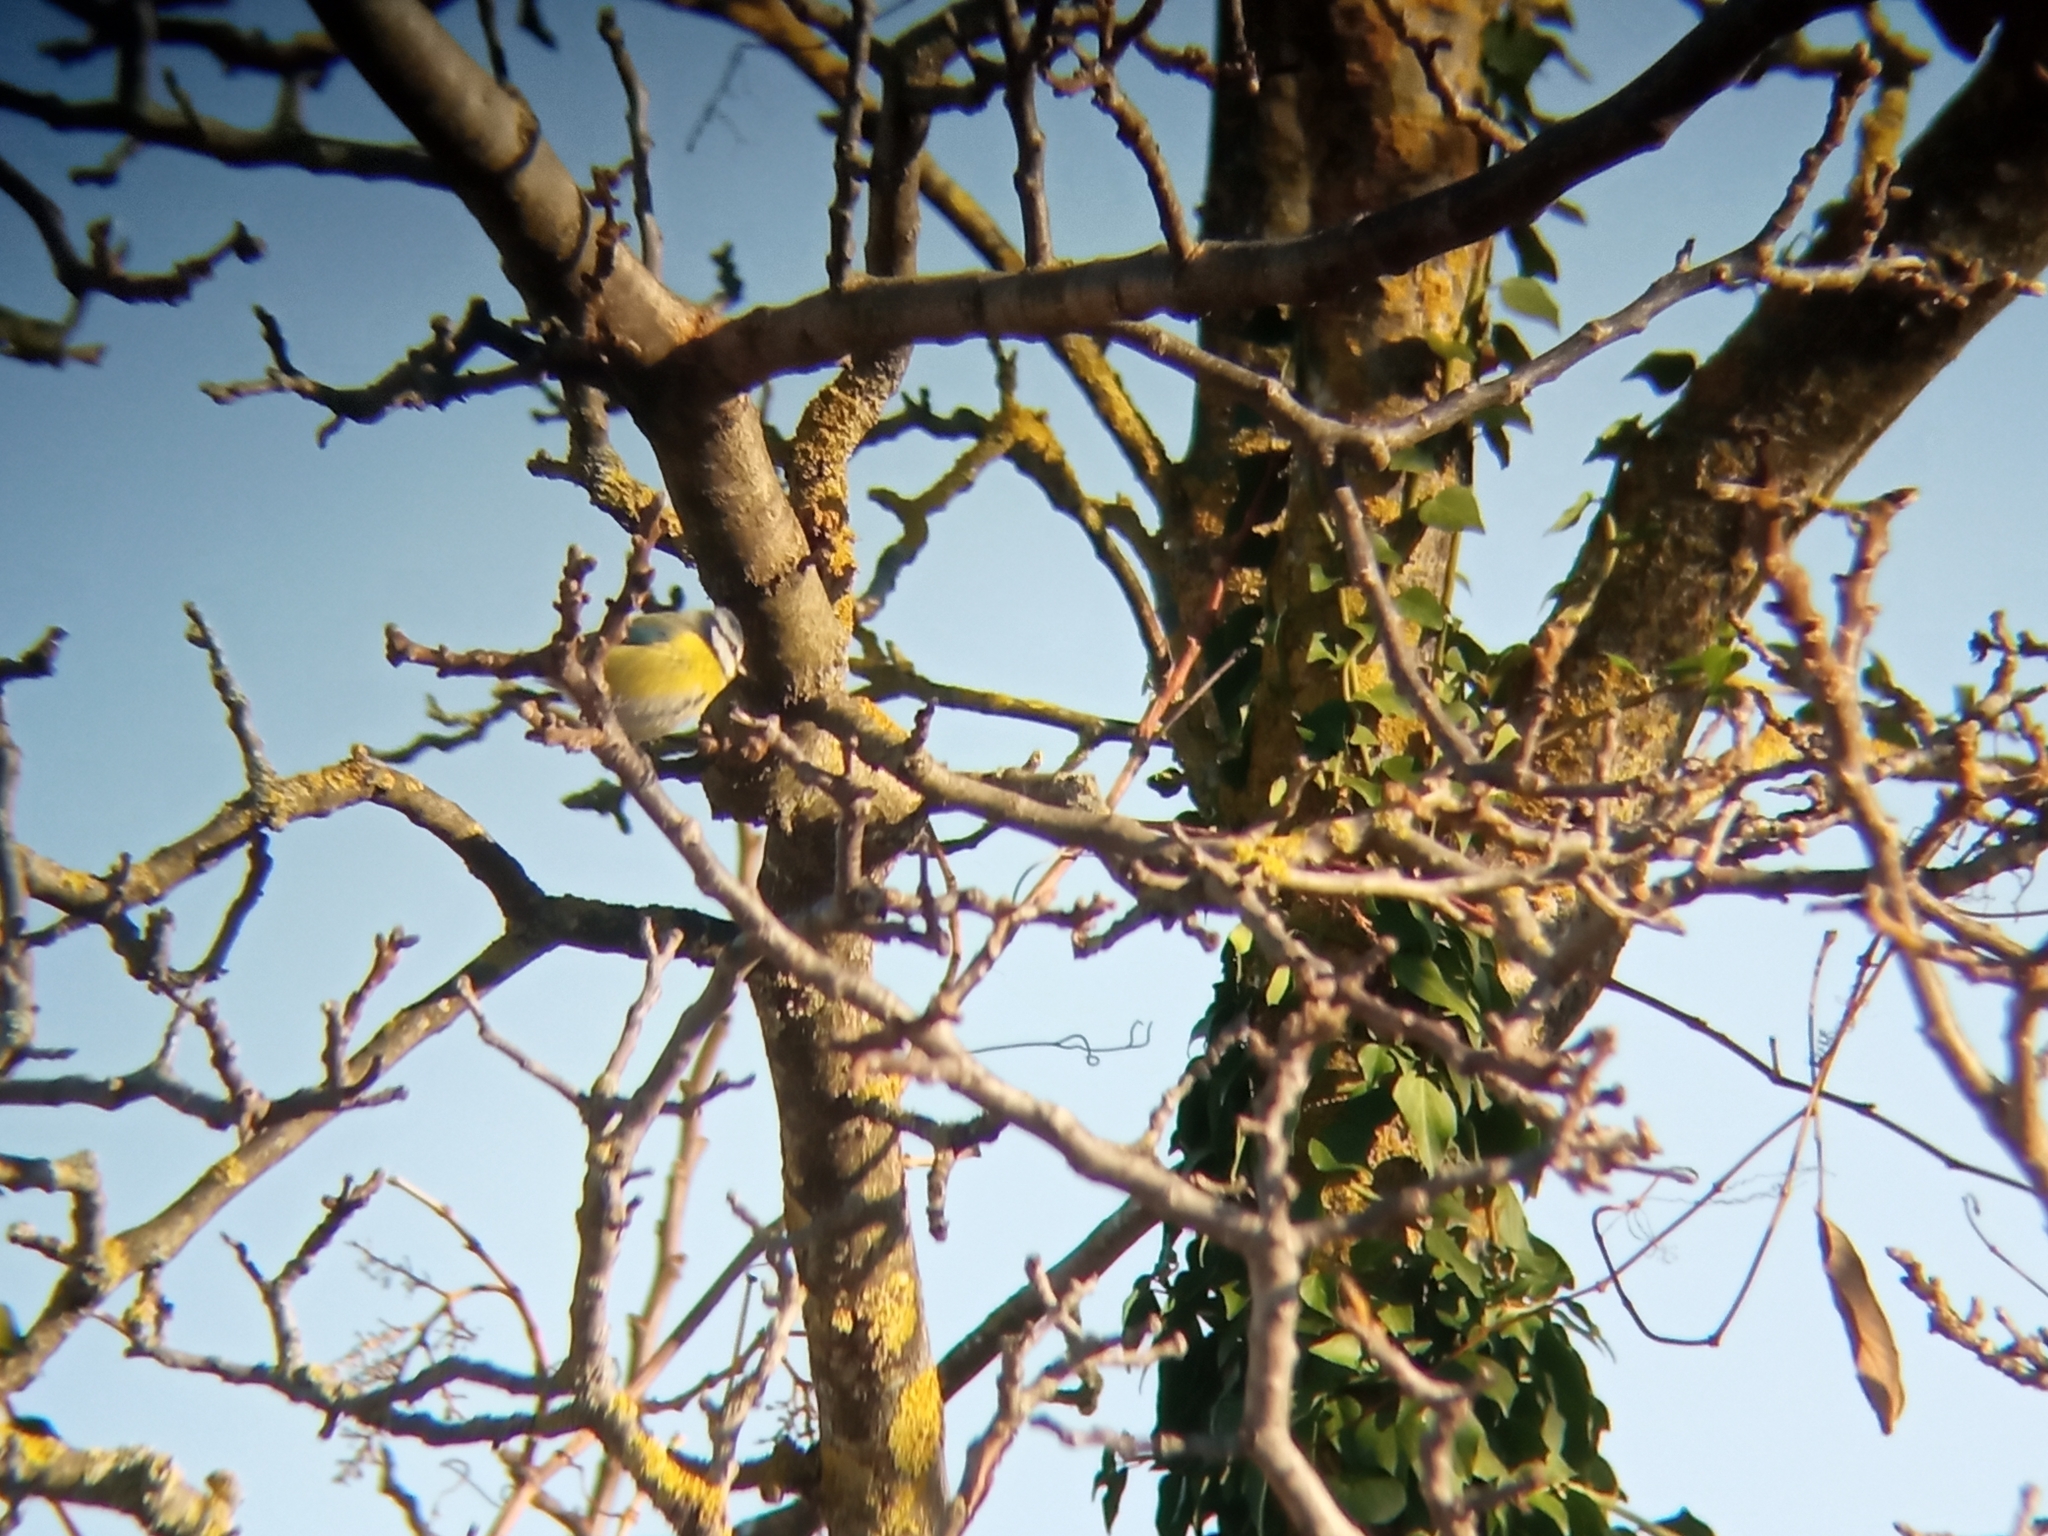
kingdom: Animalia
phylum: Chordata
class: Aves
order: Passeriformes
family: Paridae
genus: Cyanistes
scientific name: Cyanistes caeruleus
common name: Eurasian blue tit
